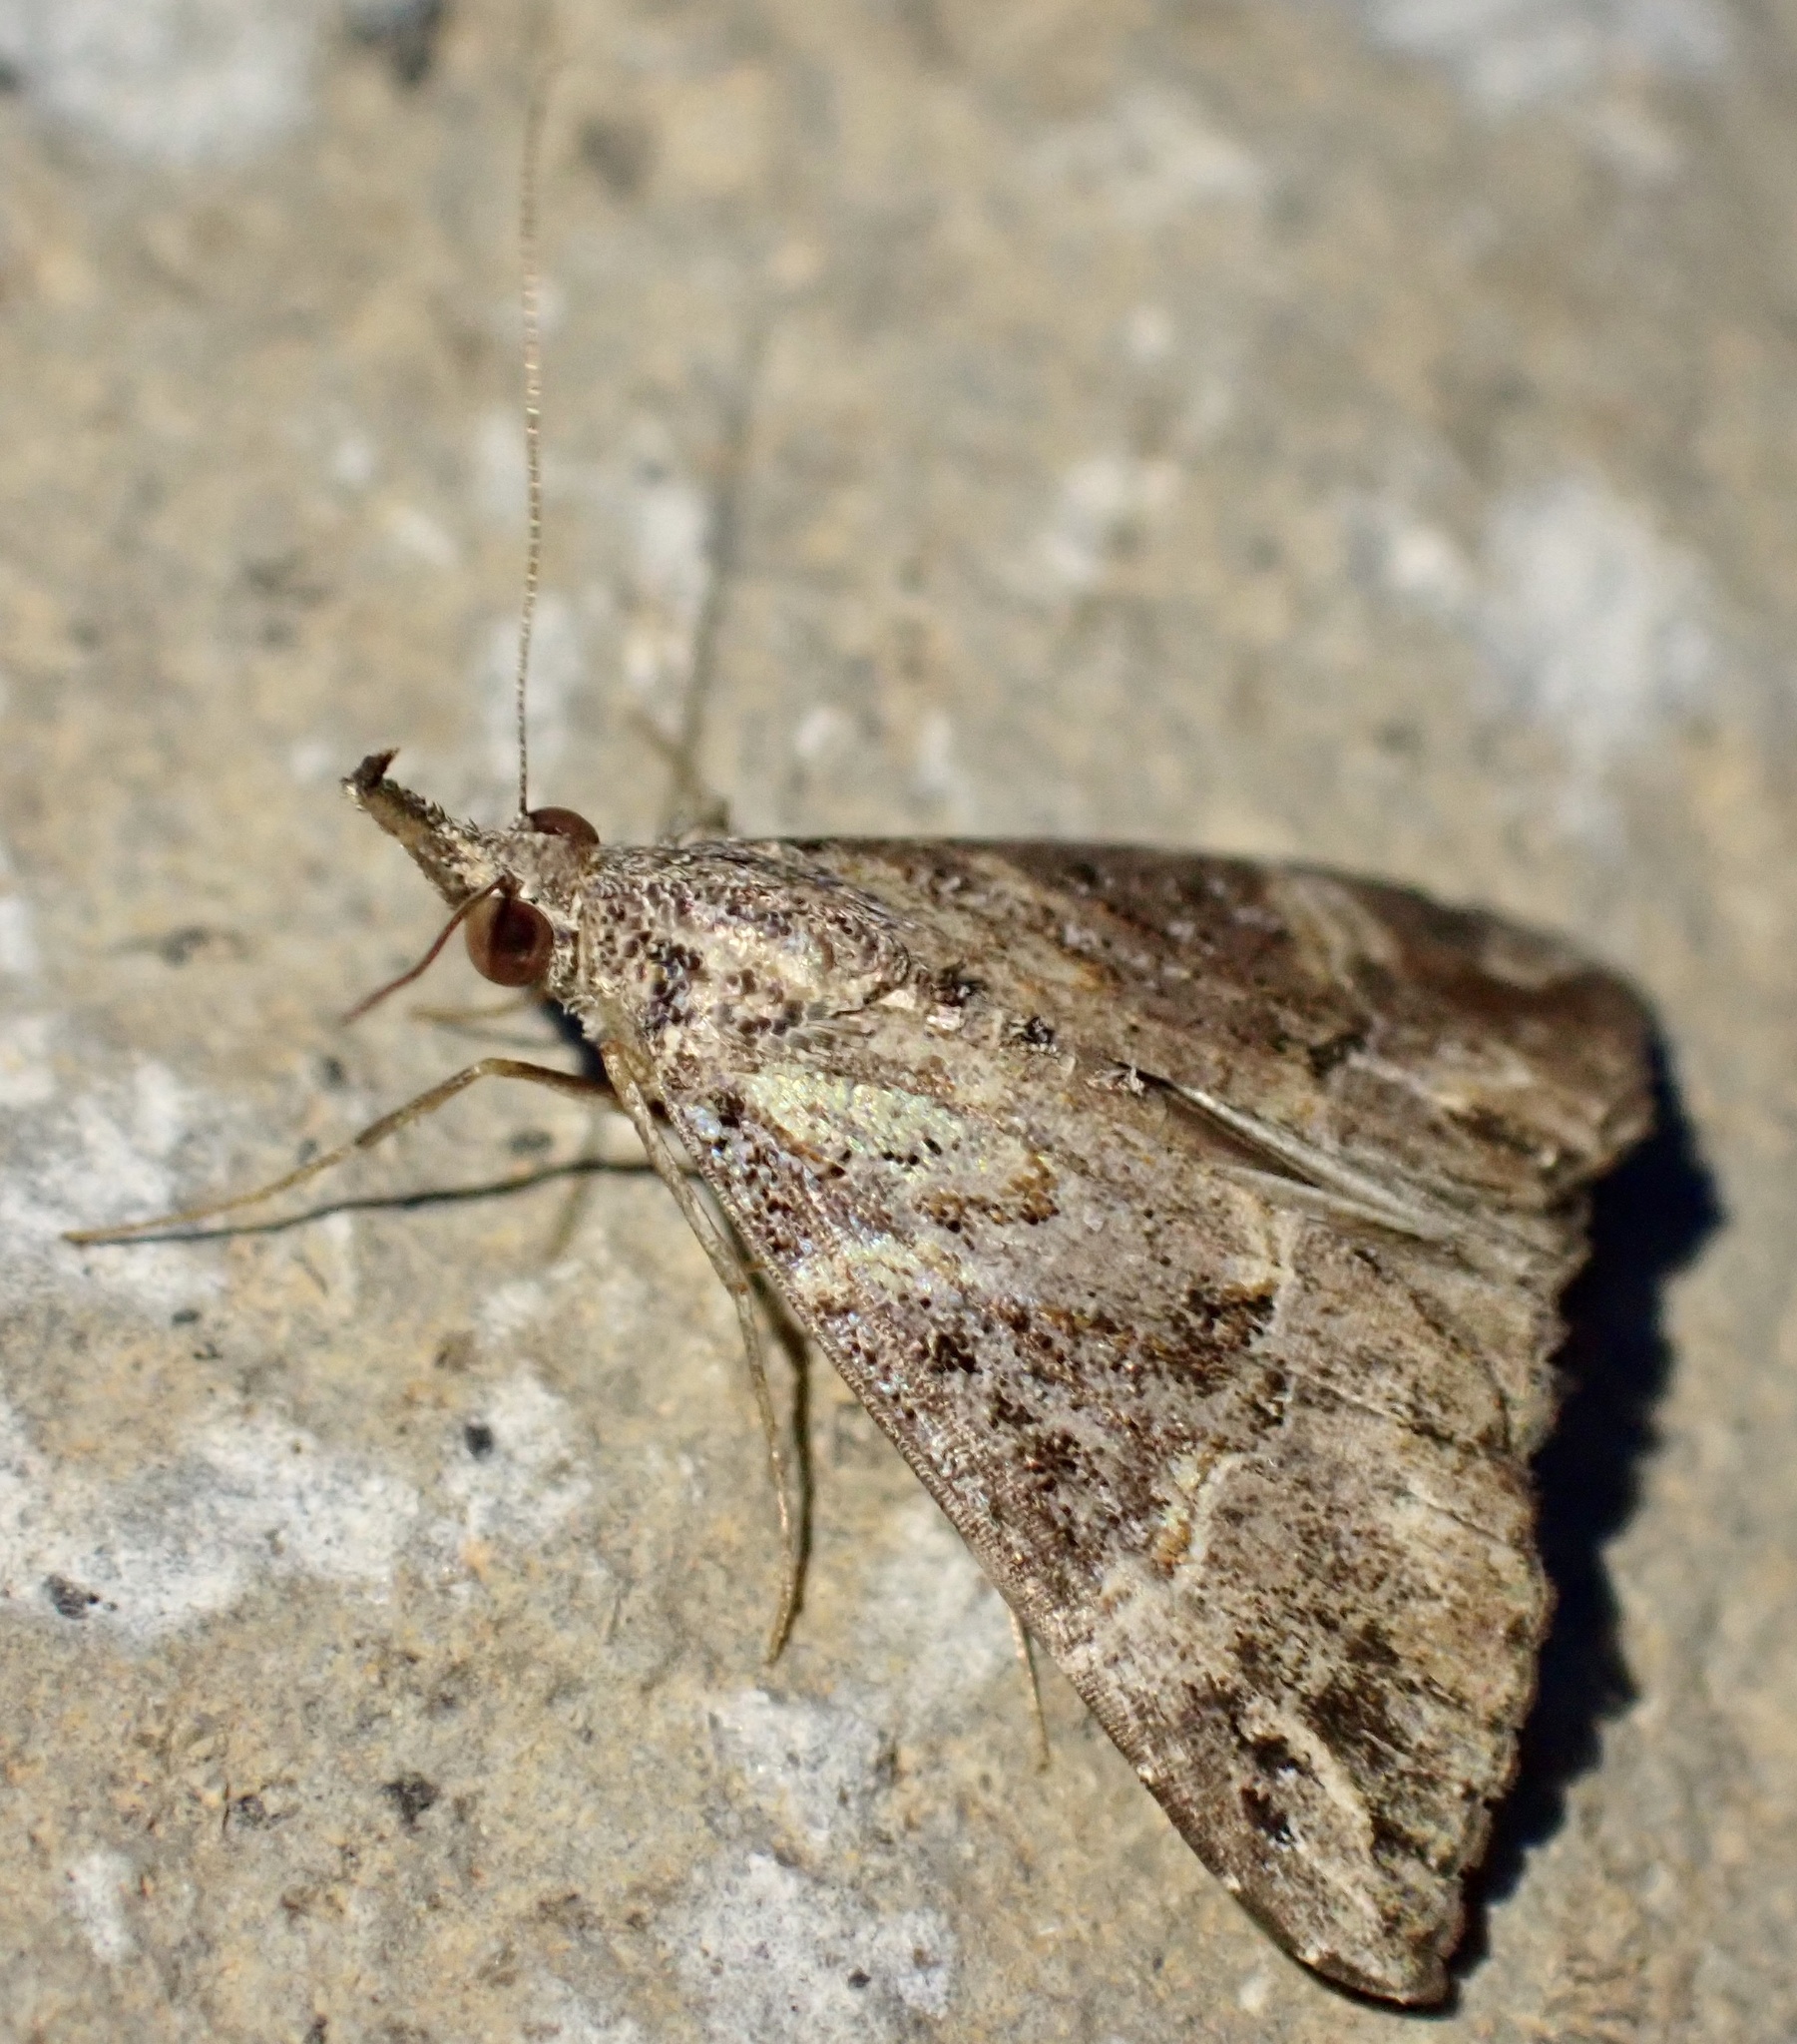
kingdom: Animalia
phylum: Arthropoda
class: Insecta
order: Lepidoptera
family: Erebidae
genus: Hypena
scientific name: Hypena commixtalis
